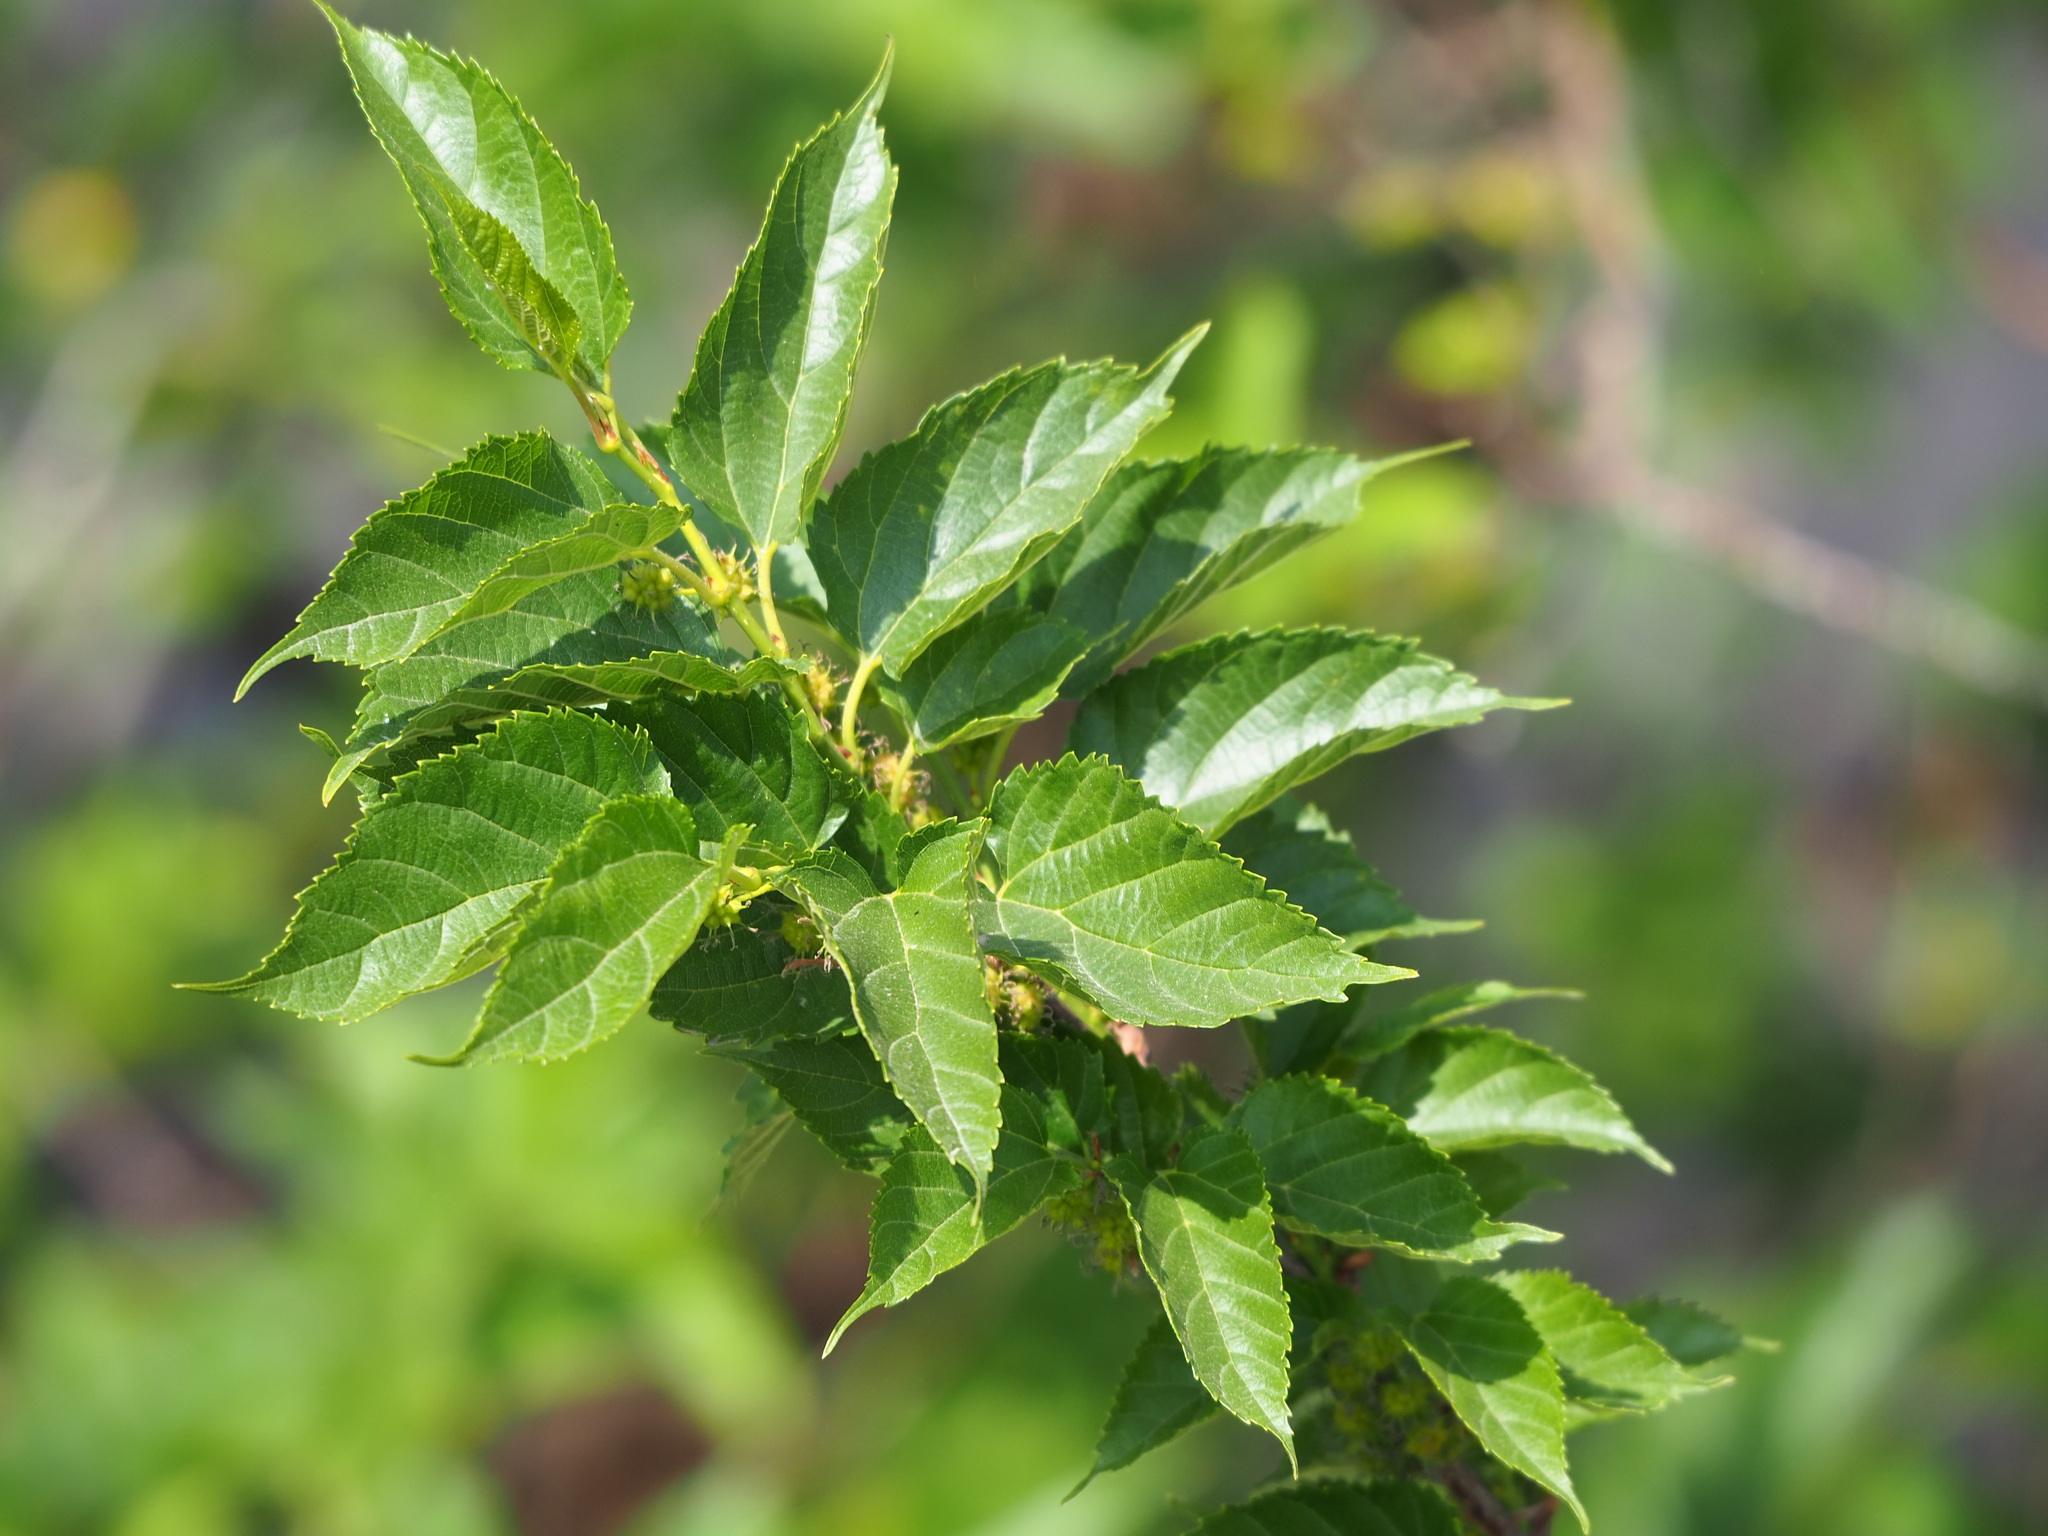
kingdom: Plantae
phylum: Tracheophyta
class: Magnoliopsida
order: Rosales
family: Moraceae
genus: Morus
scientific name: Morus indica
